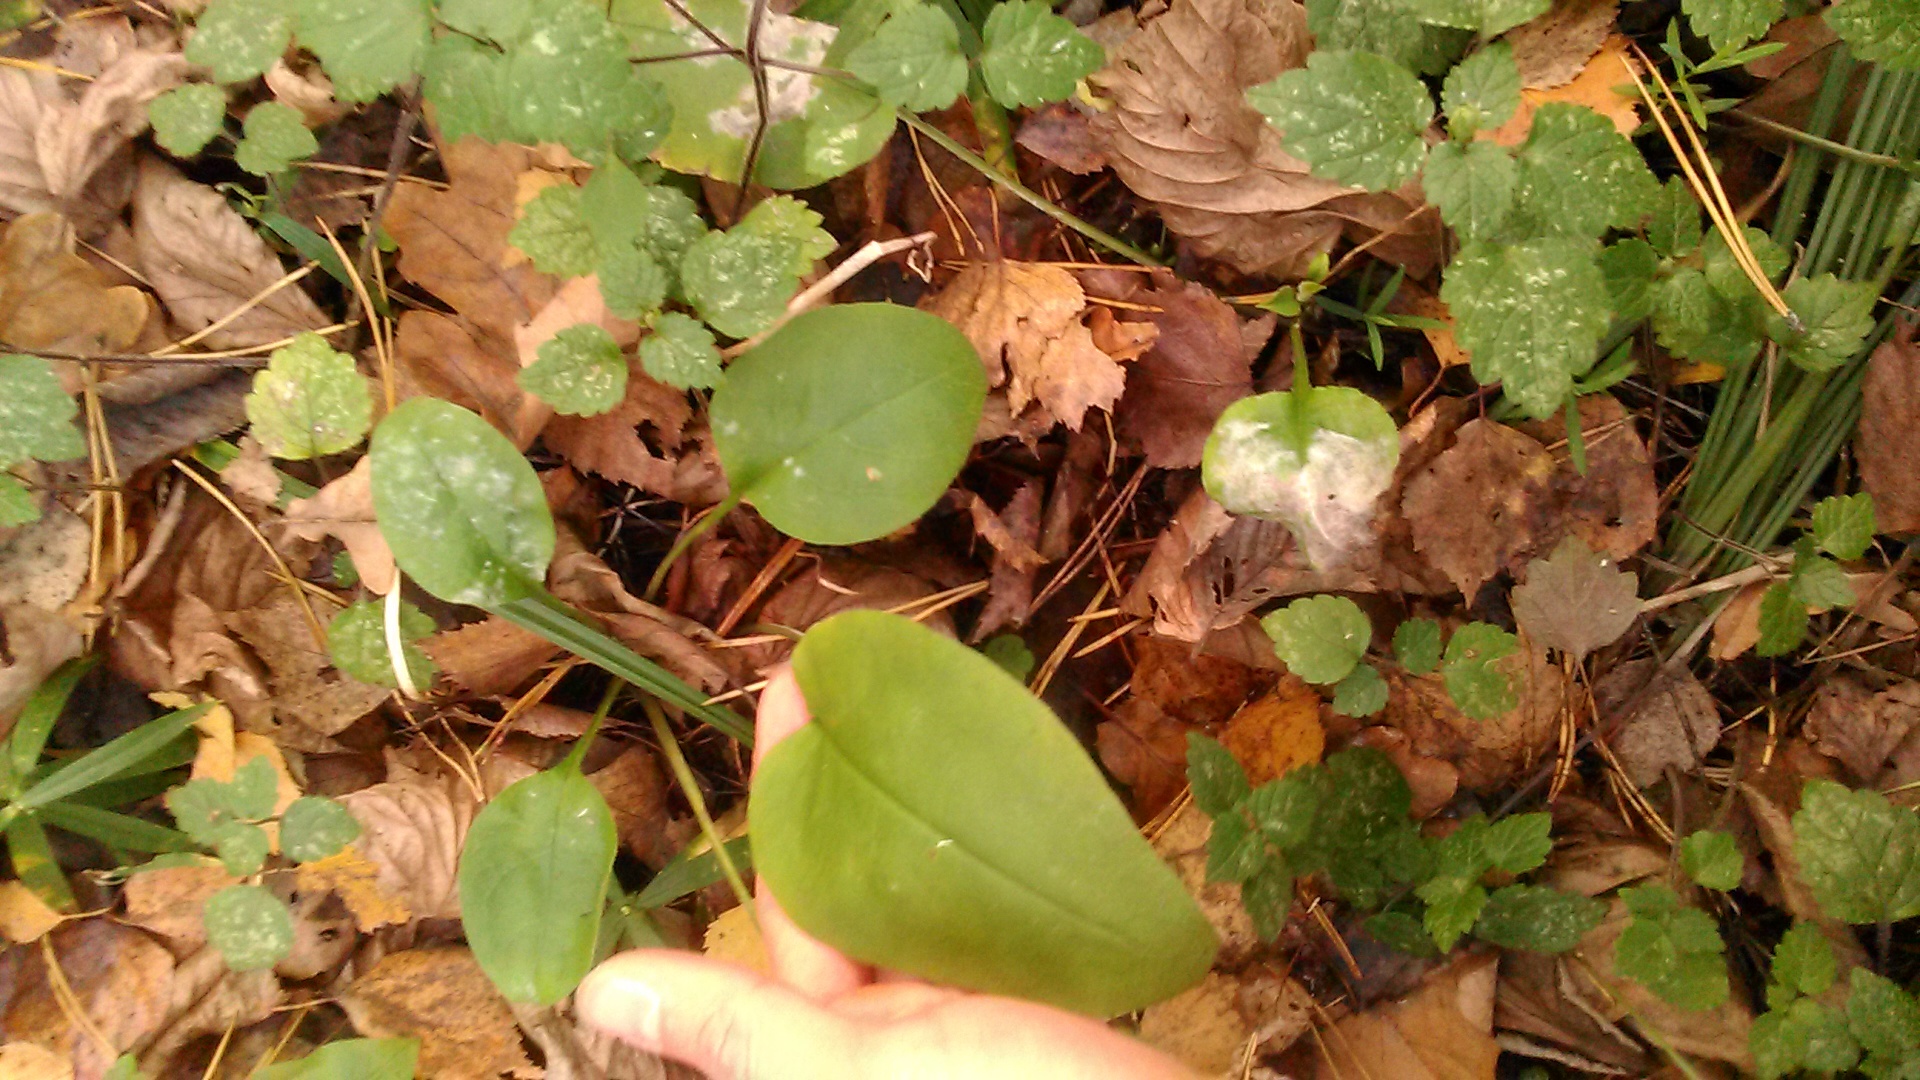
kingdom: Plantae
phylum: Tracheophyta
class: Magnoliopsida
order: Boraginales
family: Boraginaceae
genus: Pulmonaria
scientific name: Pulmonaria obscura
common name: Suffolk lungwort
